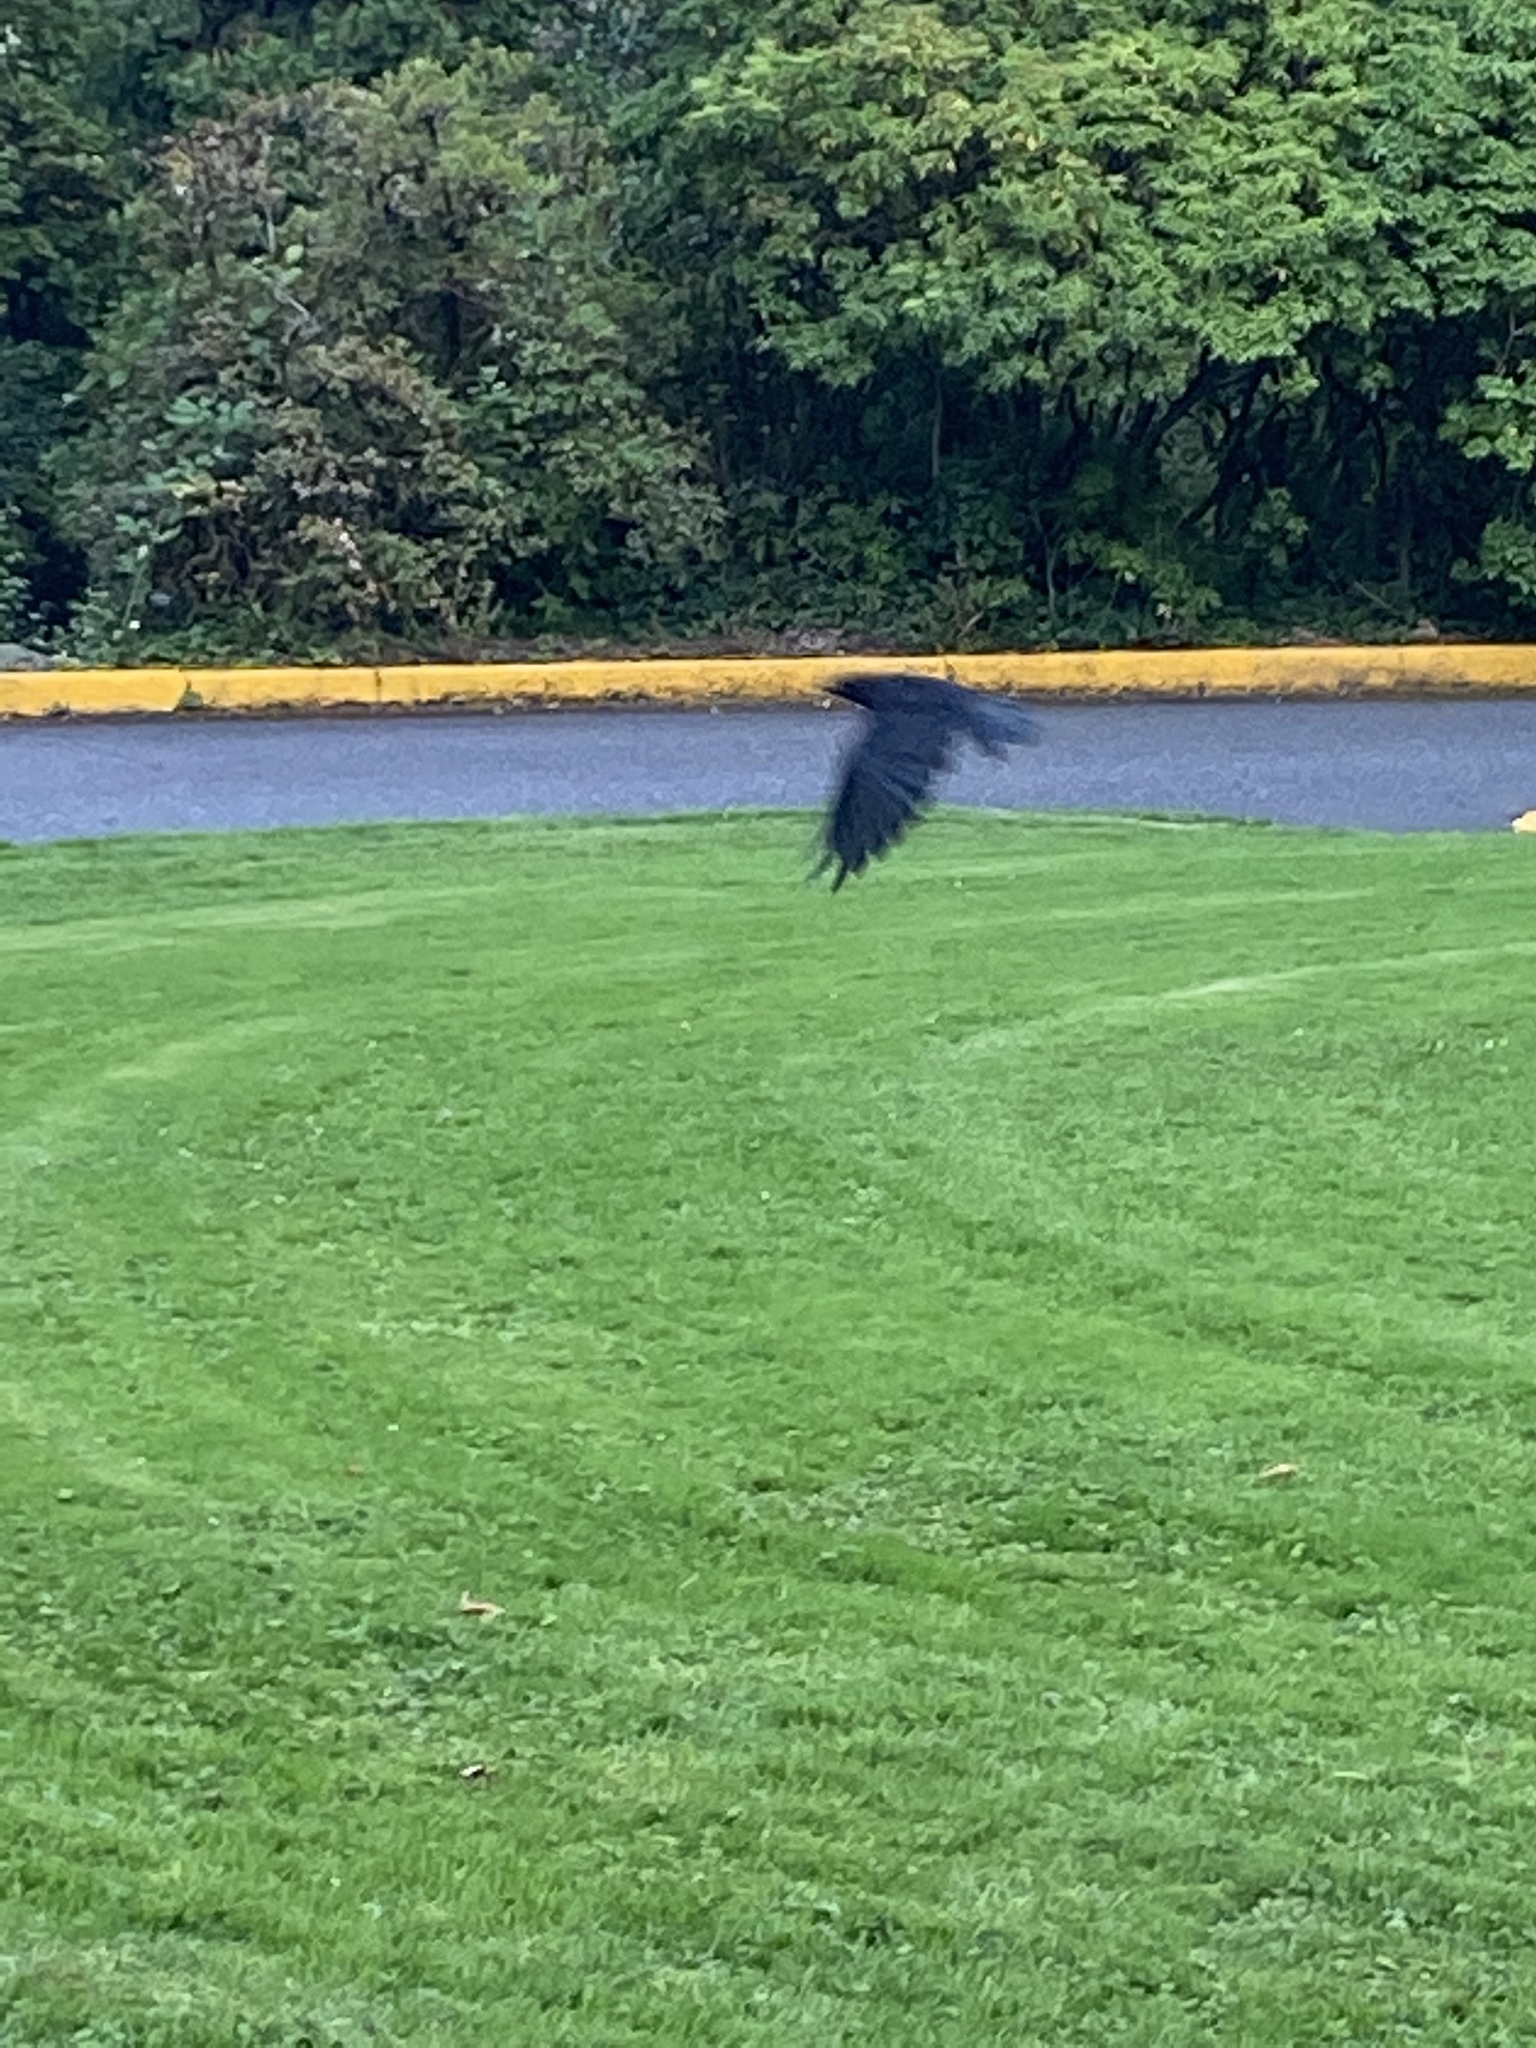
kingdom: Animalia
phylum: Chordata
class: Aves
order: Passeriformes
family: Corvidae
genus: Corvus
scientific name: Corvus brachyrhynchos
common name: American crow
